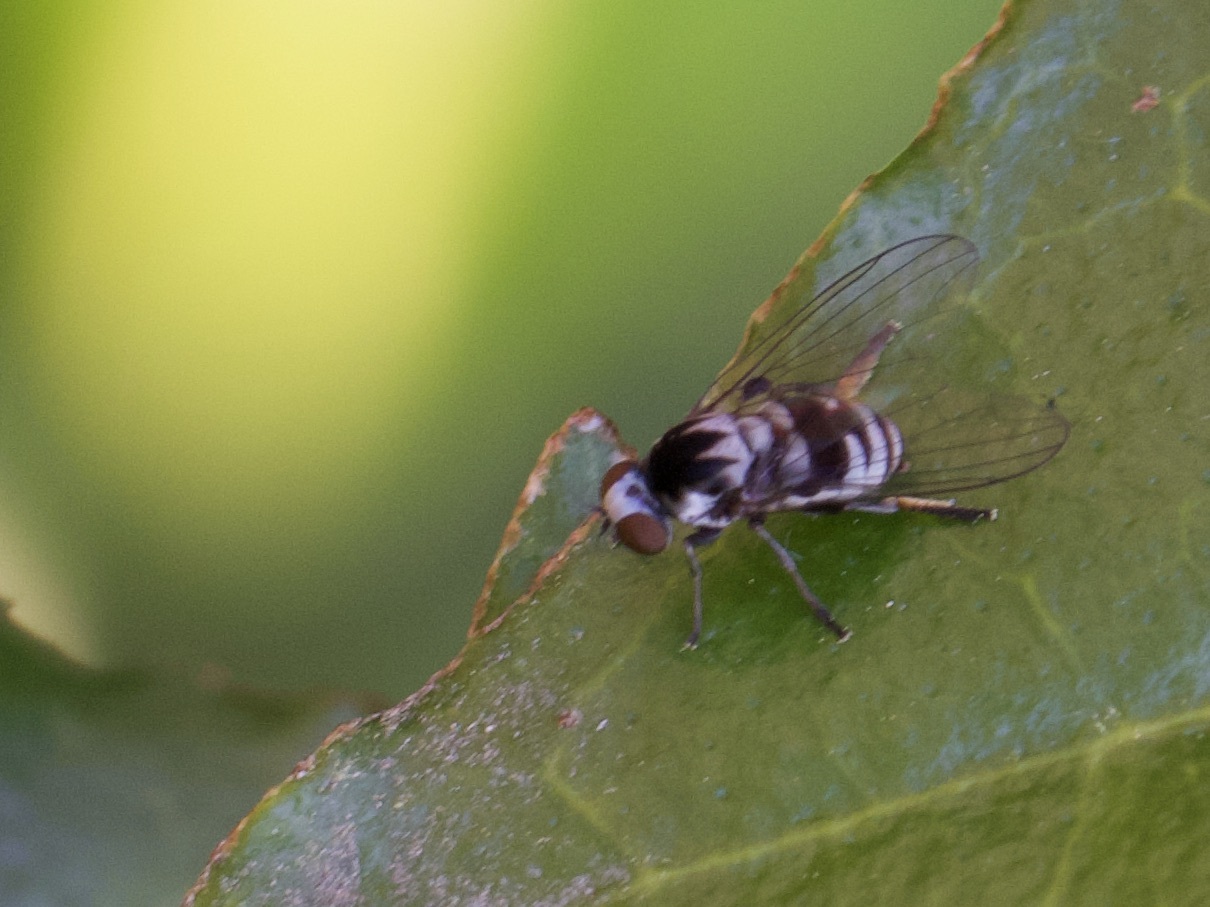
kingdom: Animalia
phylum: Arthropoda
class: Insecta
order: Diptera
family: Platypezidae
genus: Polyporivora
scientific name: Polyporivora ornata
